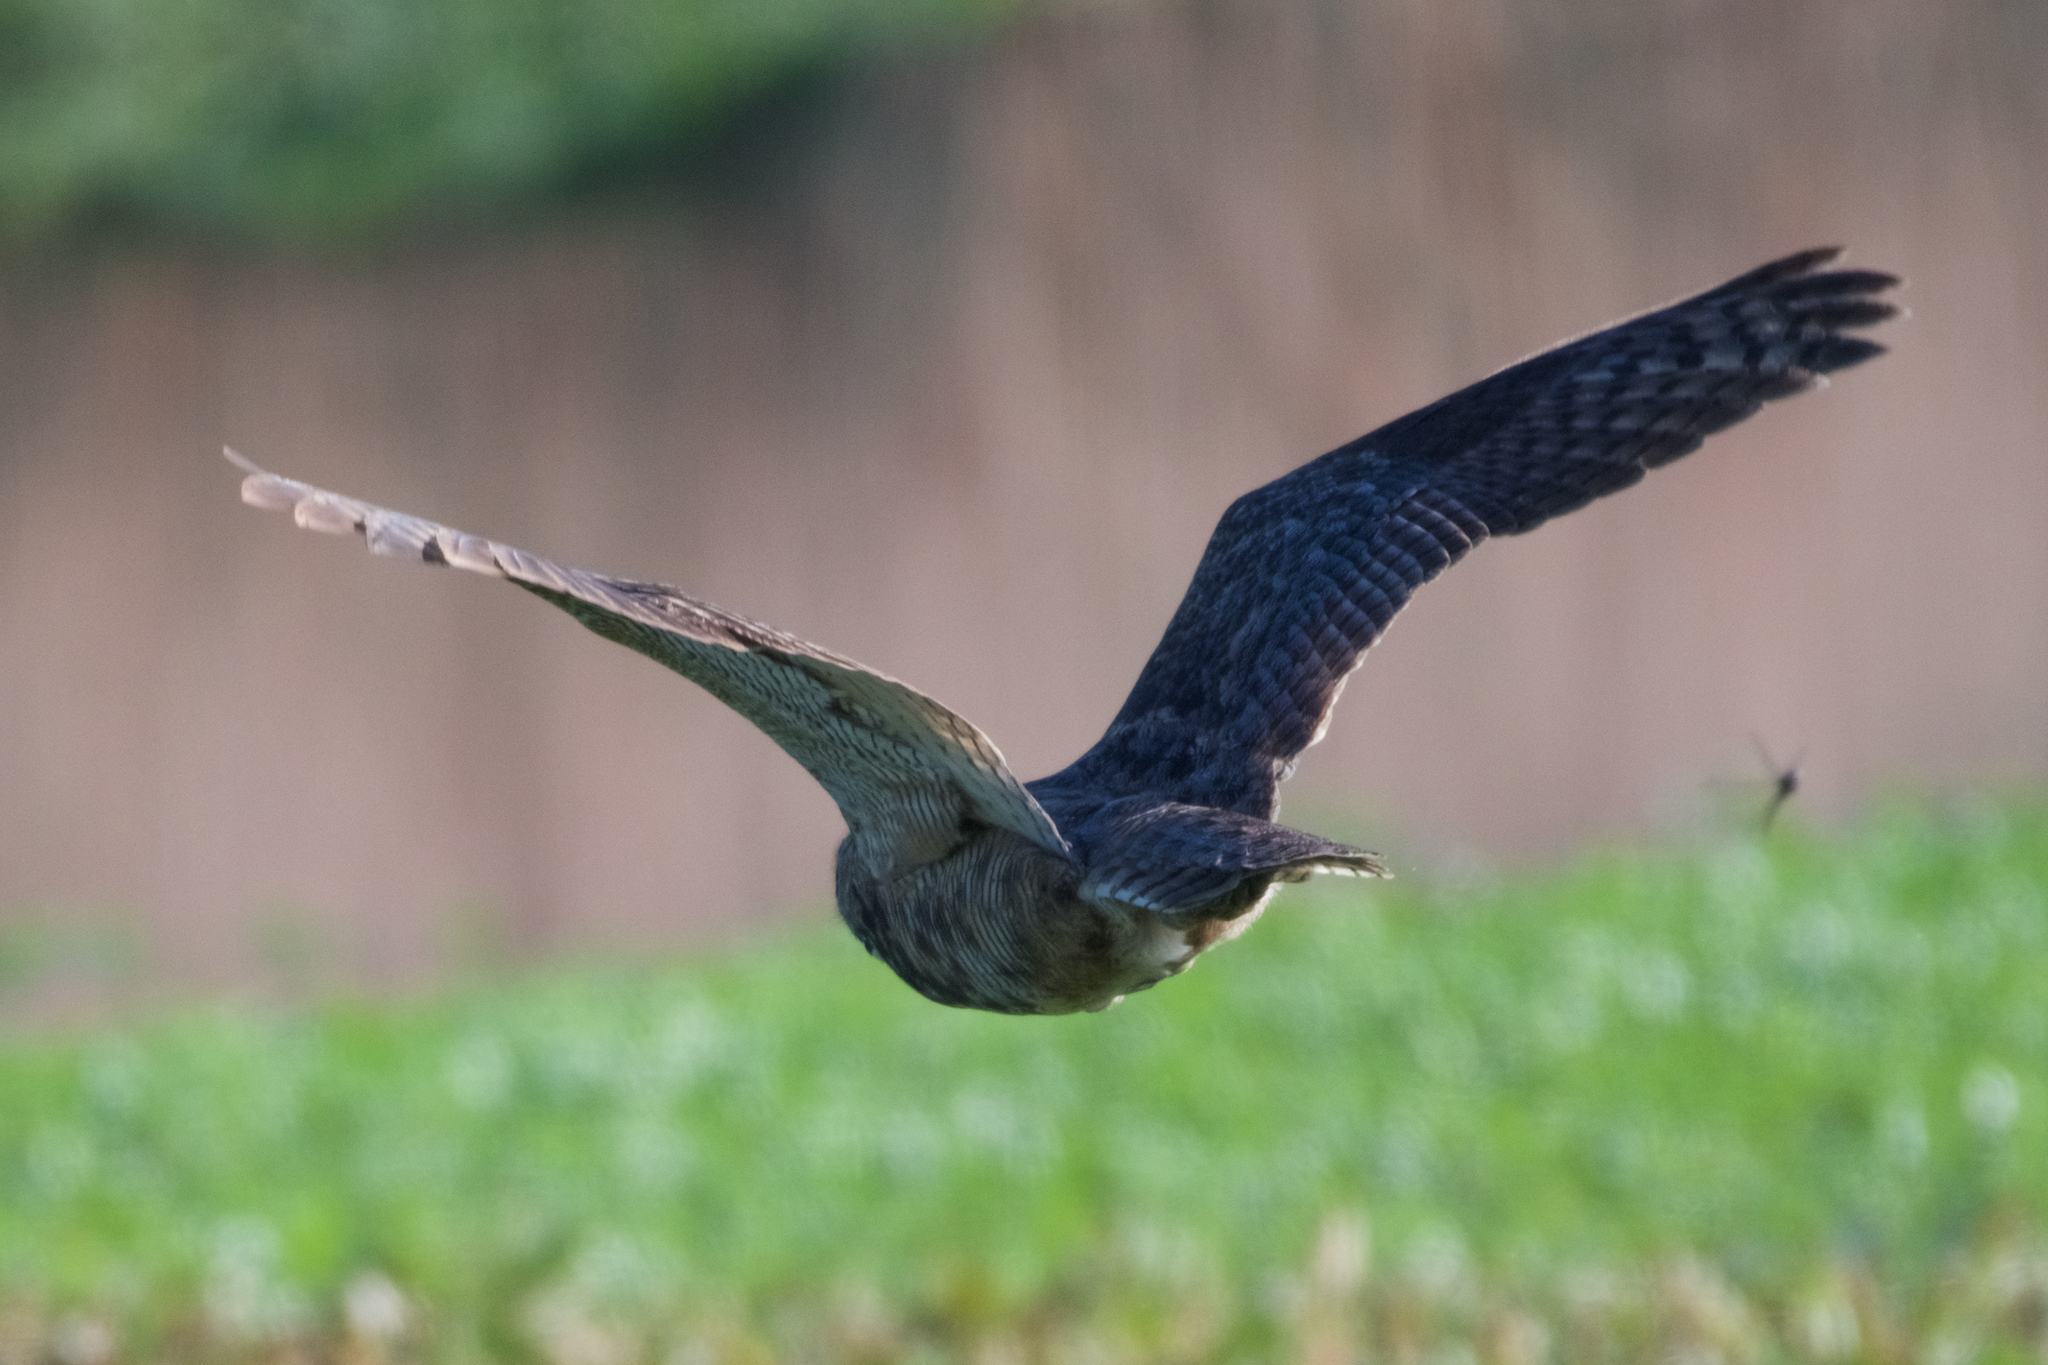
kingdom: Animalia
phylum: Chordata
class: Aves
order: Strigiformes
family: Strigidae
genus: Bubo
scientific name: Bubo virginianus
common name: Great horned owl
